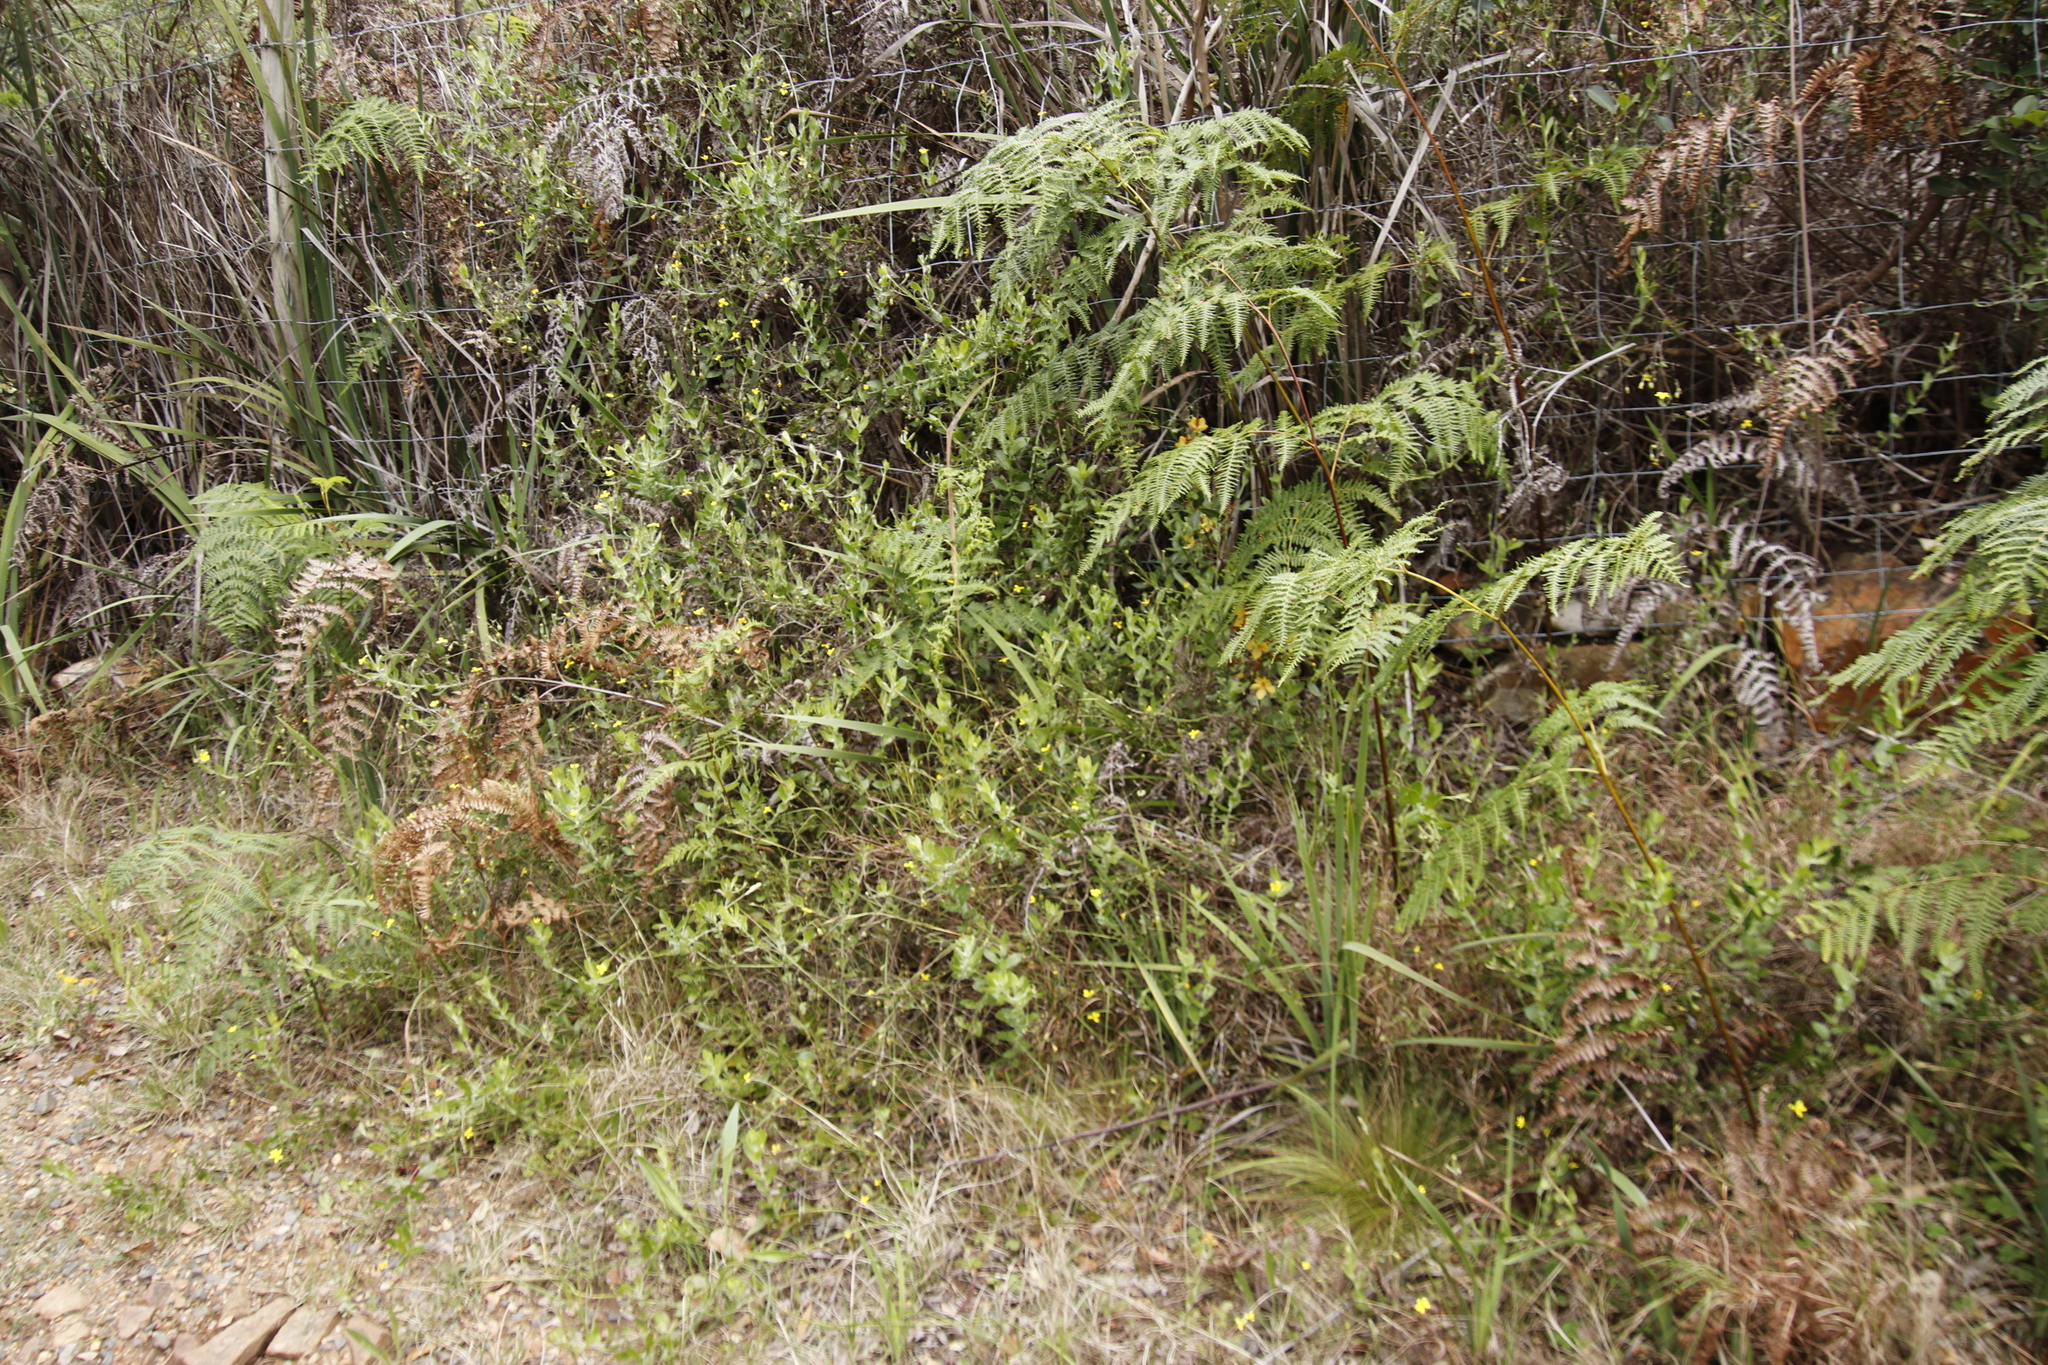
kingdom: Plantae
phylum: Tracheophyta
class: Polypodiopsida
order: Polypodiales
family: Dennstaedtiaceae
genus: Pteridium
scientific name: Pteridium aquilinum
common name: Bracken
